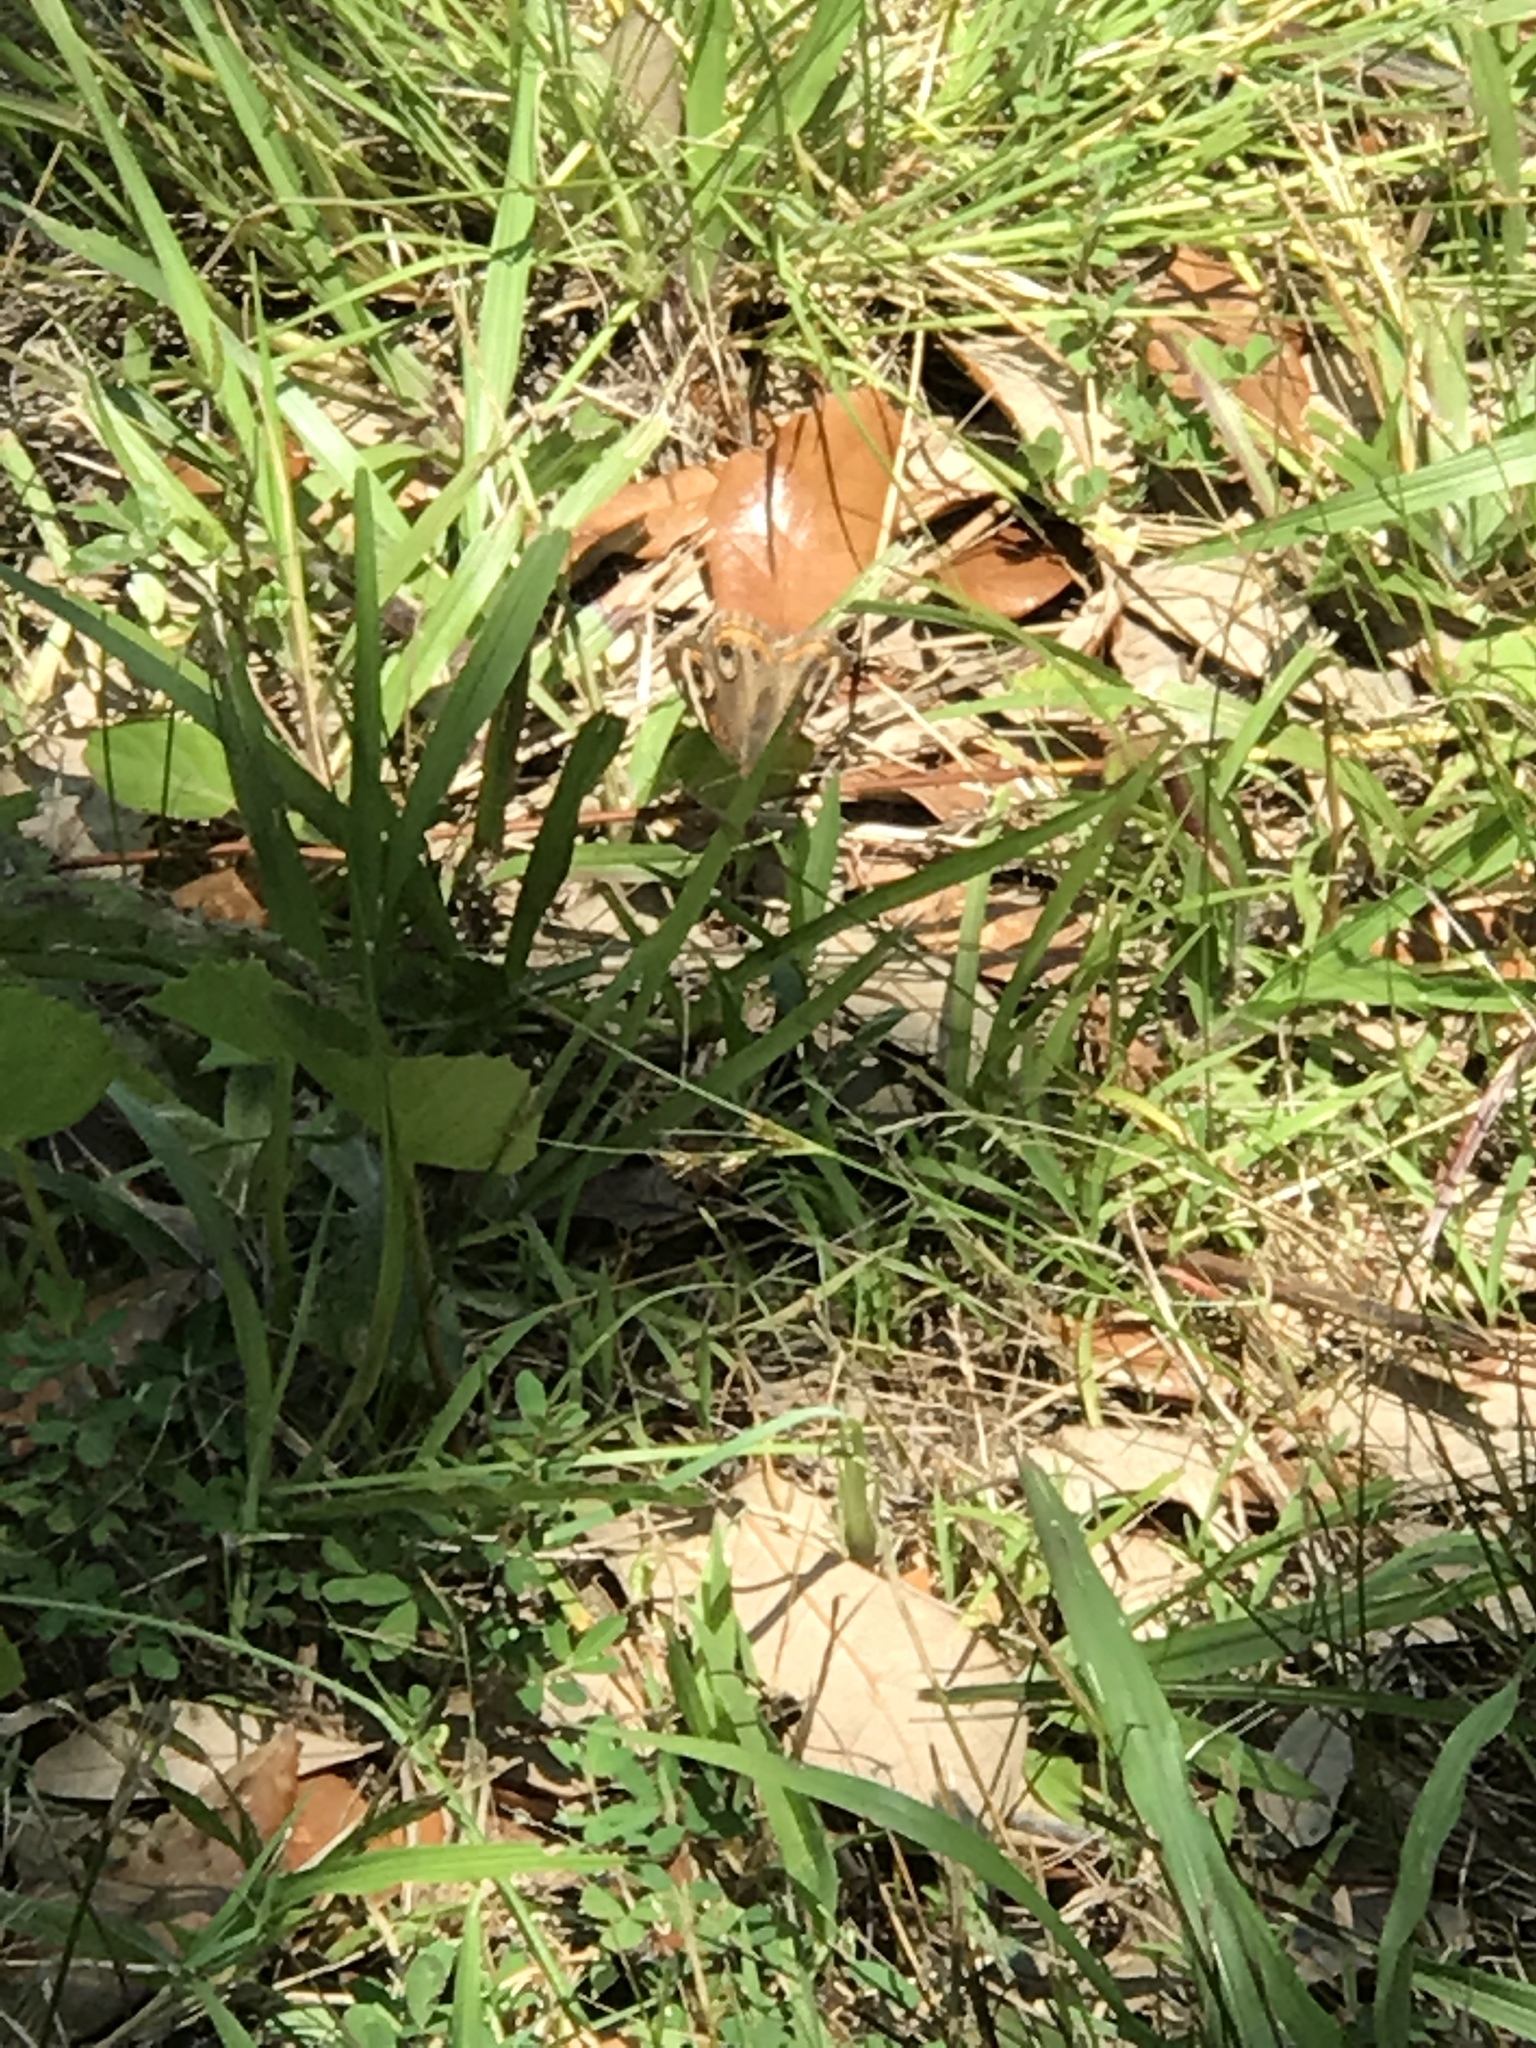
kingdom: Animalia
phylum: Arthropoda
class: Insecta
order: Lepidoptera
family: Nymphalidae
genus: Junonia
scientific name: Junonia coenia
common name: Common buckeye
